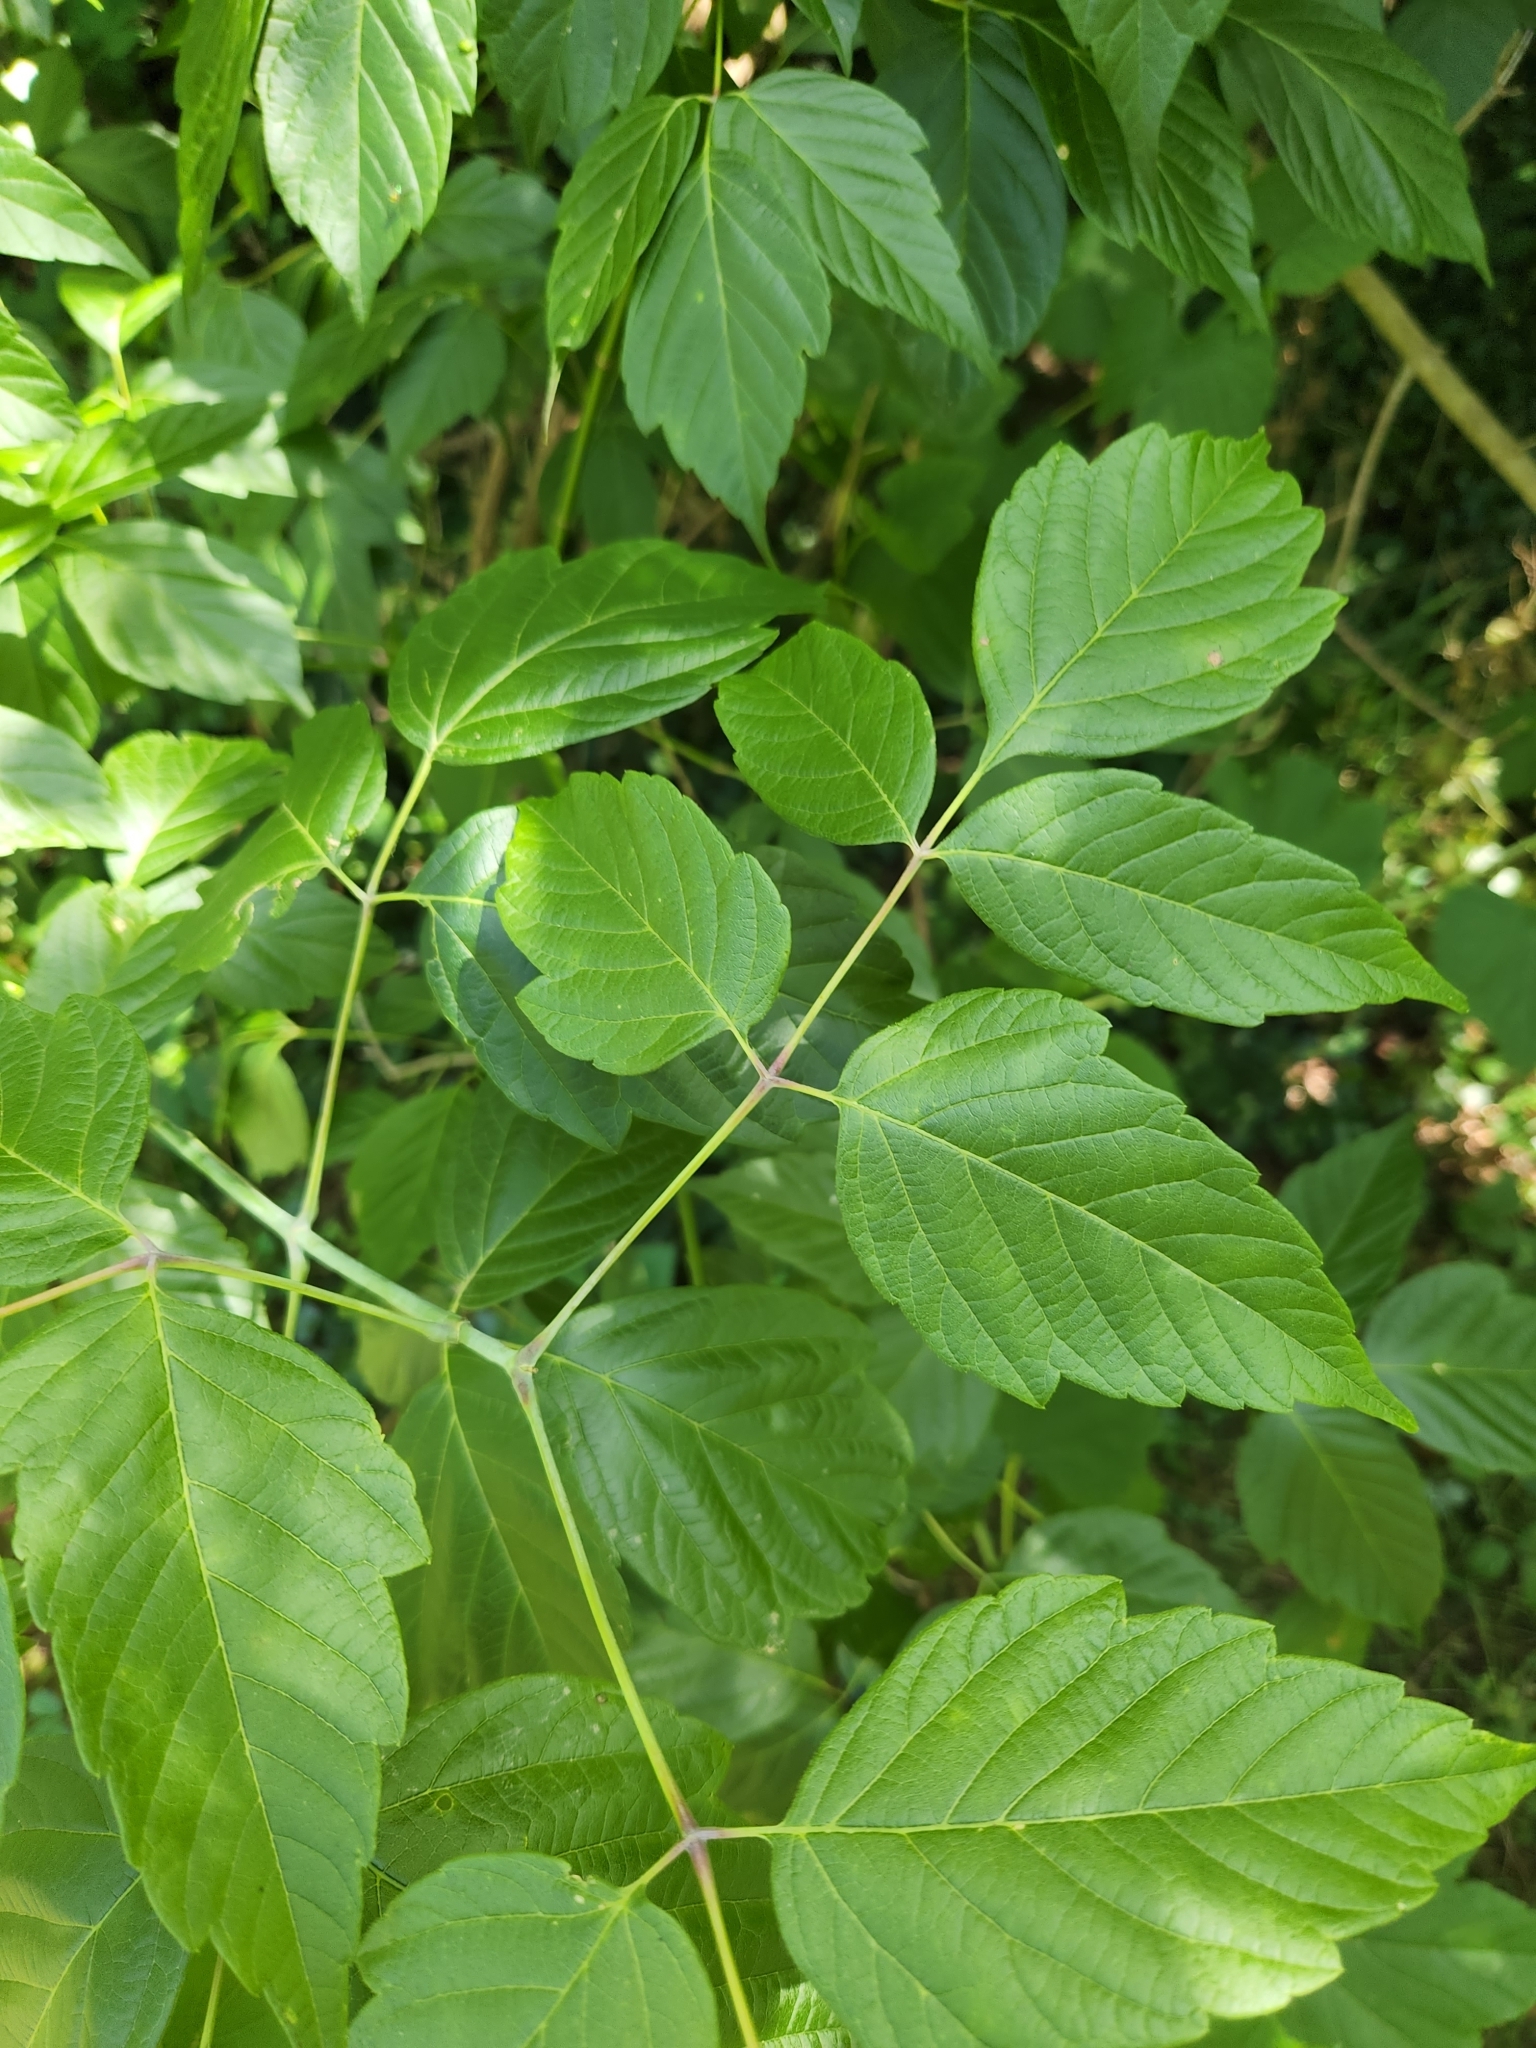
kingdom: Plantae
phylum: Tracheophyta
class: Magnoliopsida
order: Sapindales
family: Sapindaceae
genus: Acer
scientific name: Acer negundo
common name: Ashleaf maple
